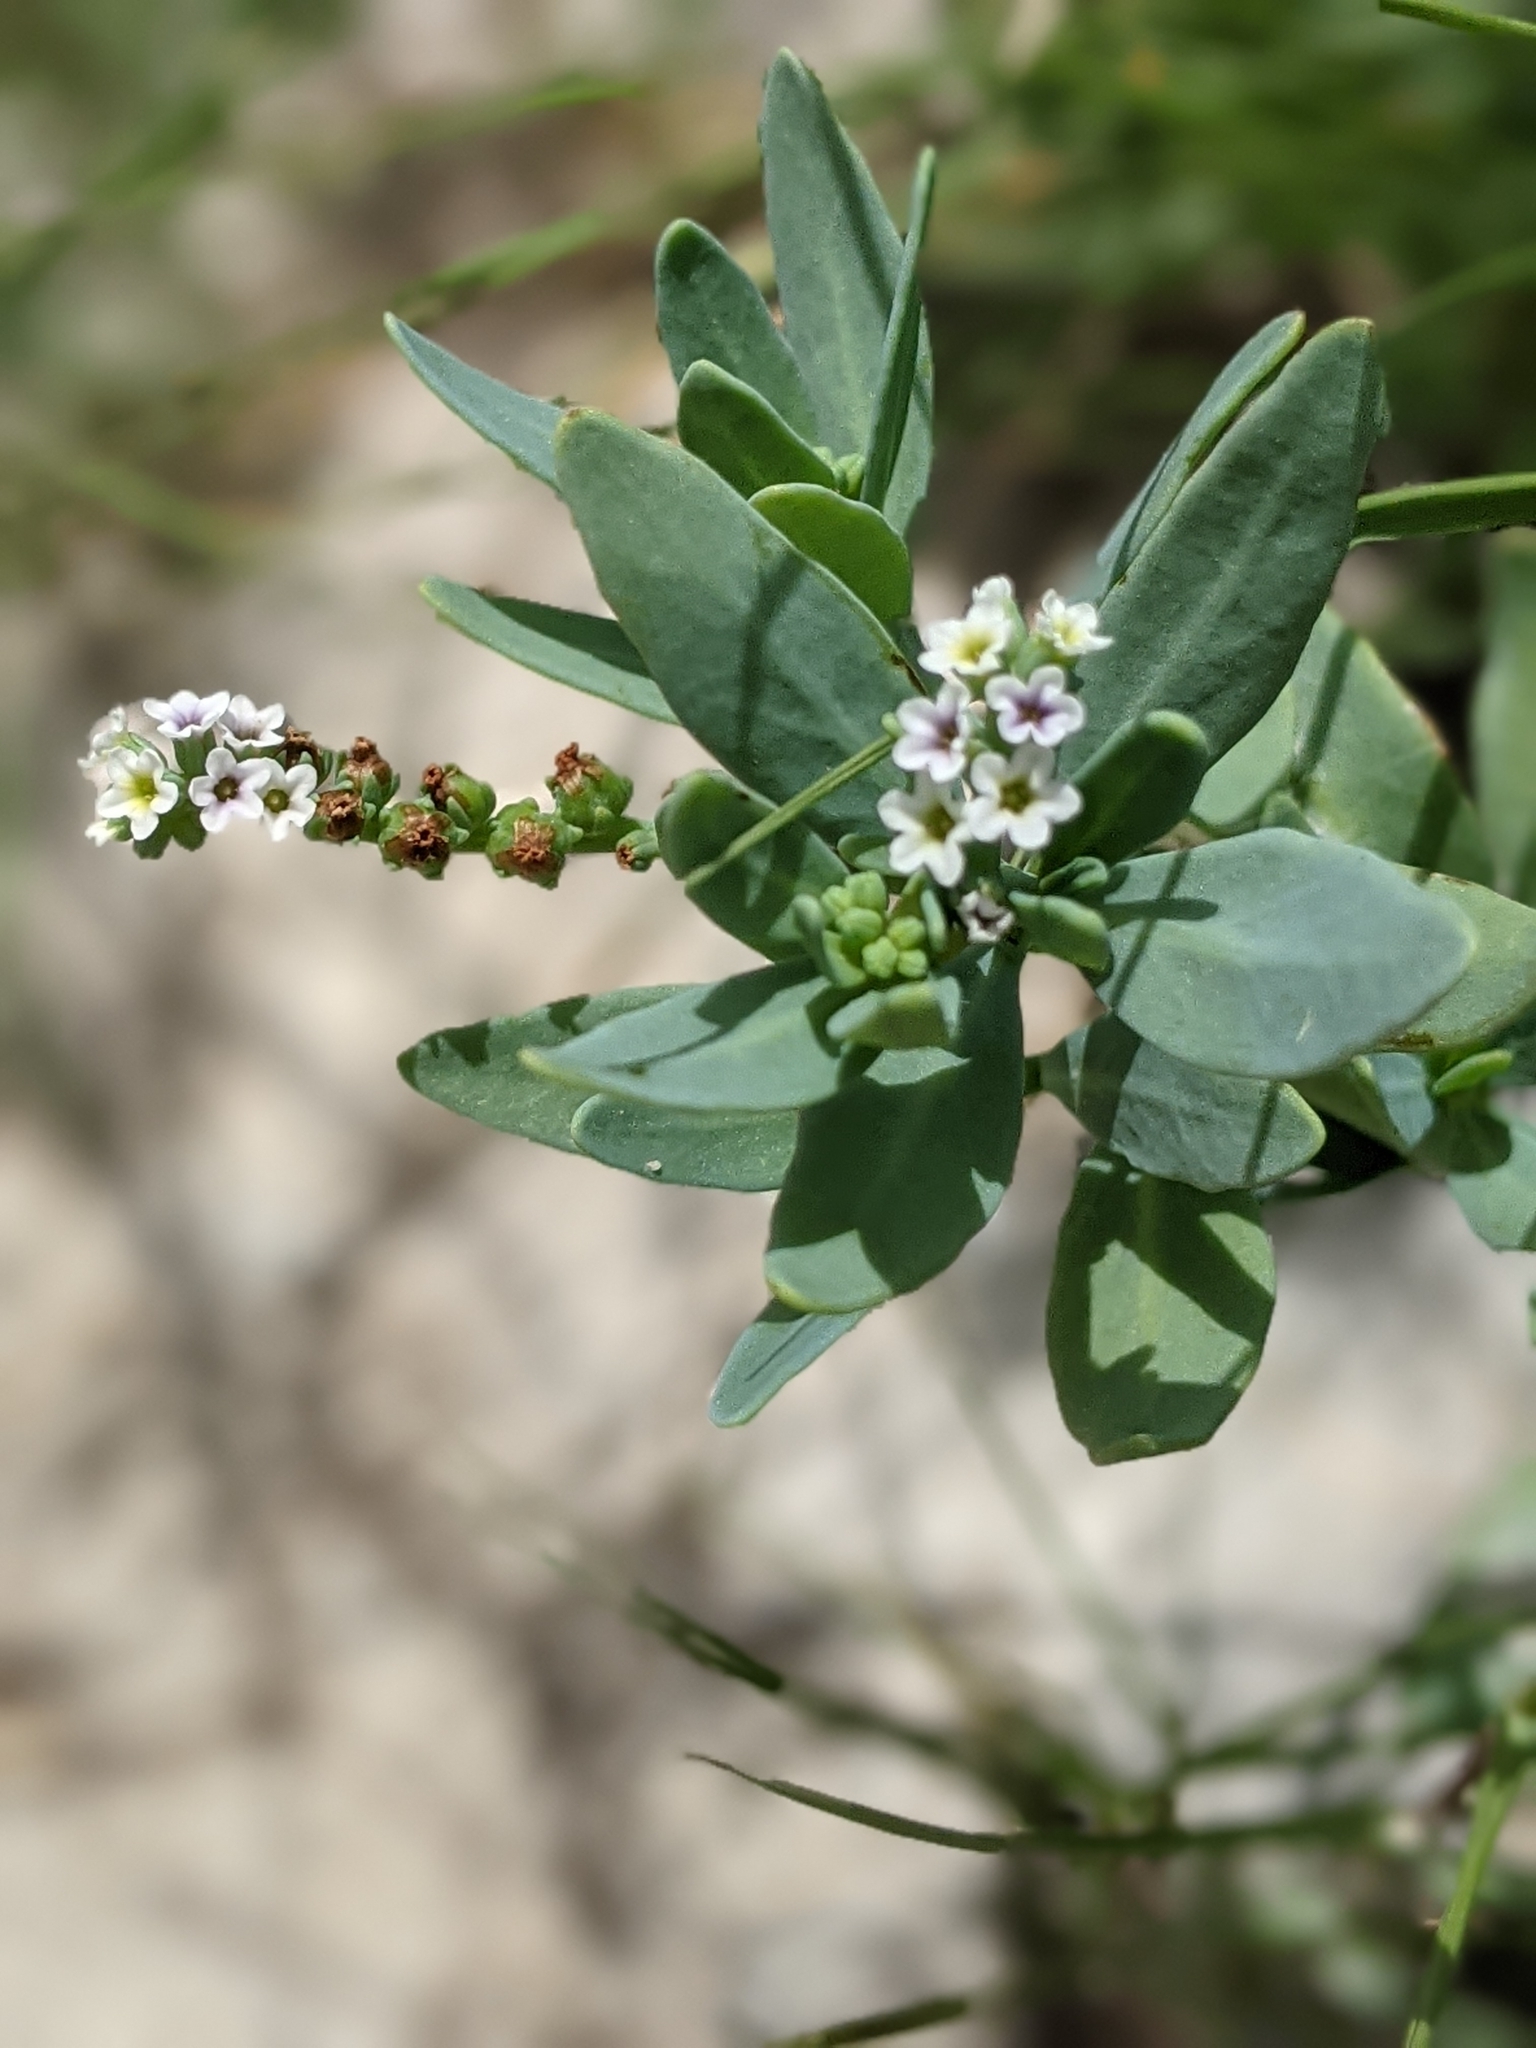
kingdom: Plantae
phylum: Tracheophyta
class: Magnoliopsida
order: Boraginales
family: Heliotropiaceae
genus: Heliotropium
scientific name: Heliotropium curassavicum
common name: Seaside heliotrope
